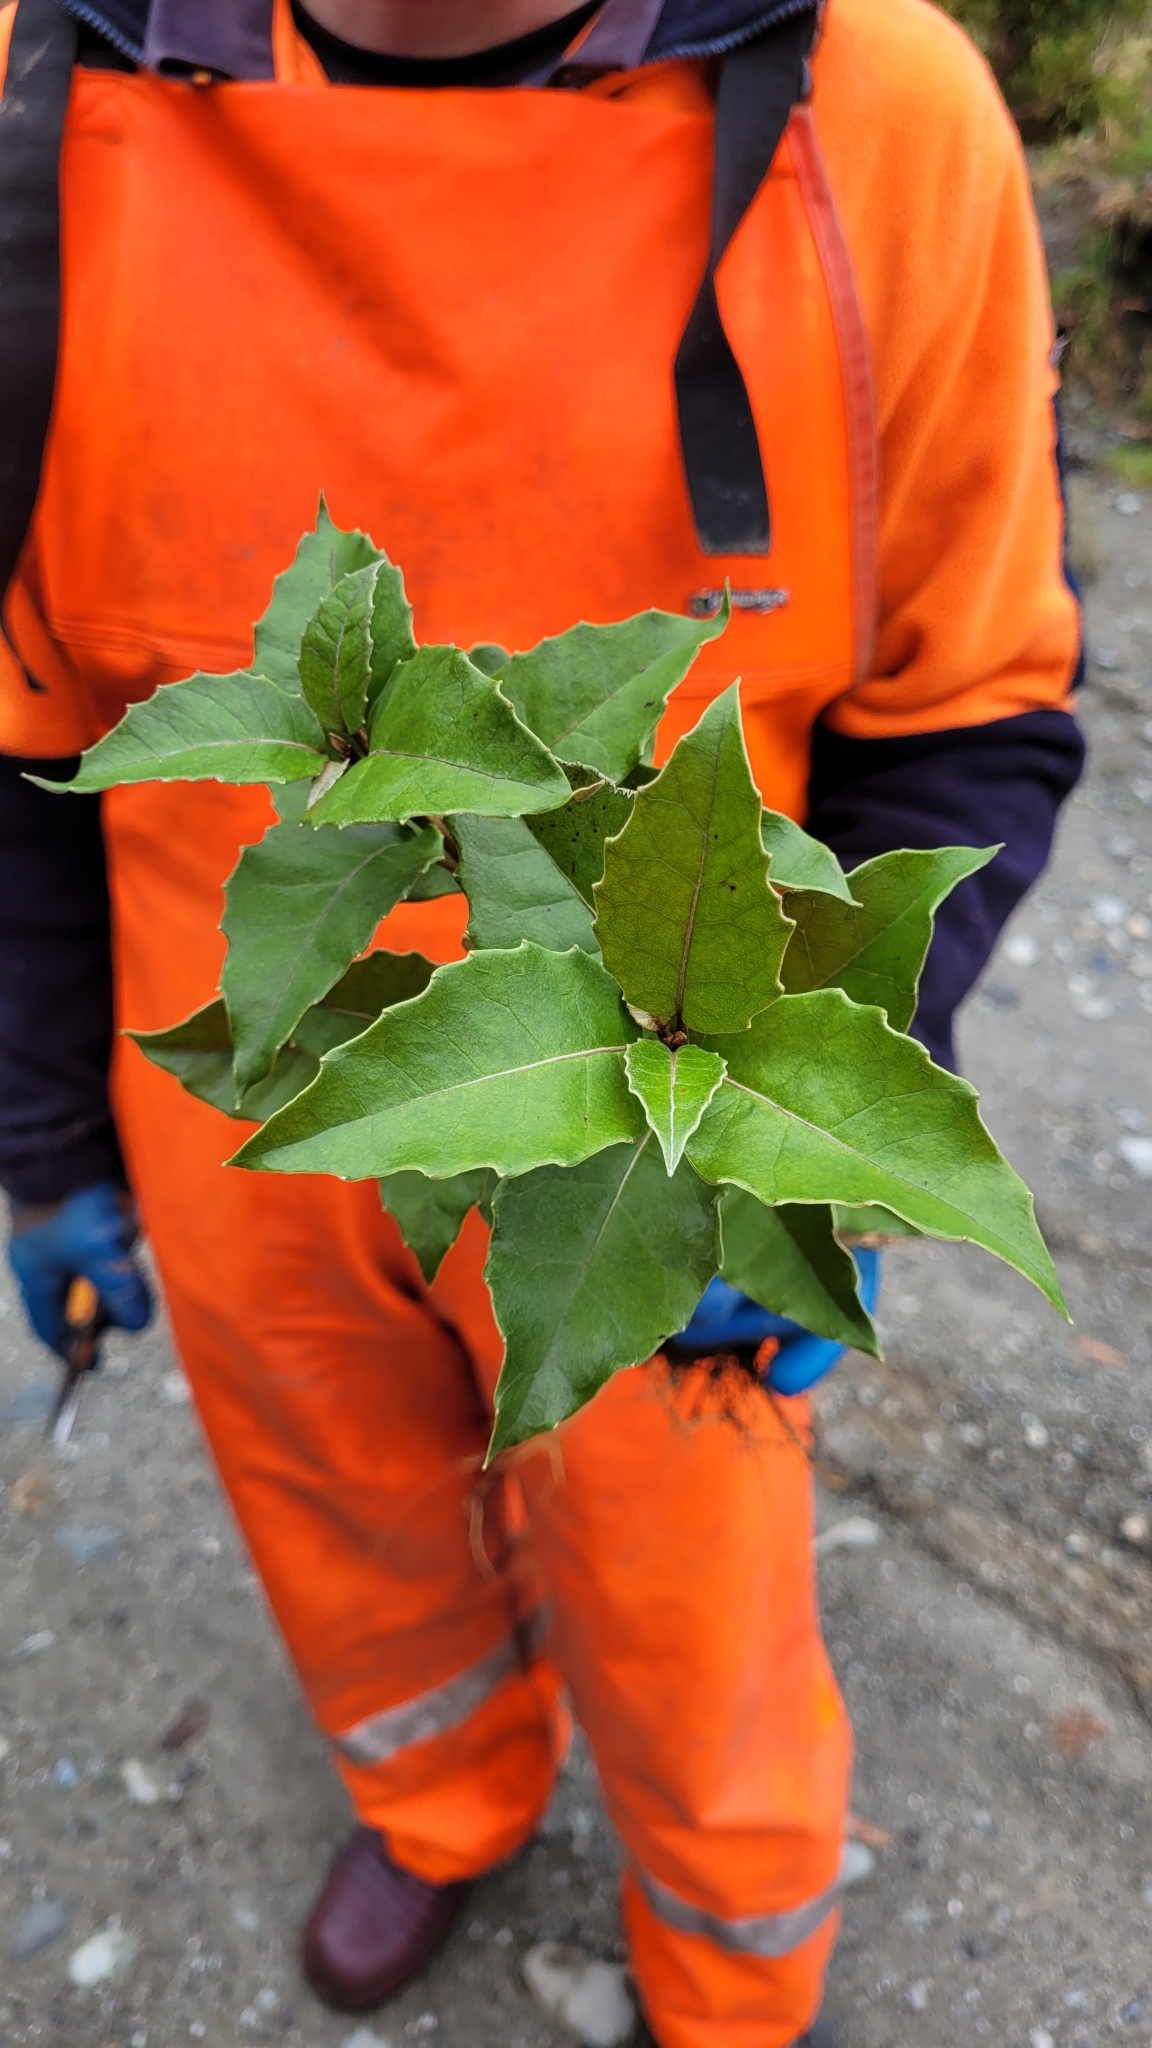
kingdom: Plantae
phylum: Tracheophyta
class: Magnoliopsida
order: Asterales
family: Asteraceae
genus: Olearia
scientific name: Olearia arborescens
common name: Glossy tree daisy
